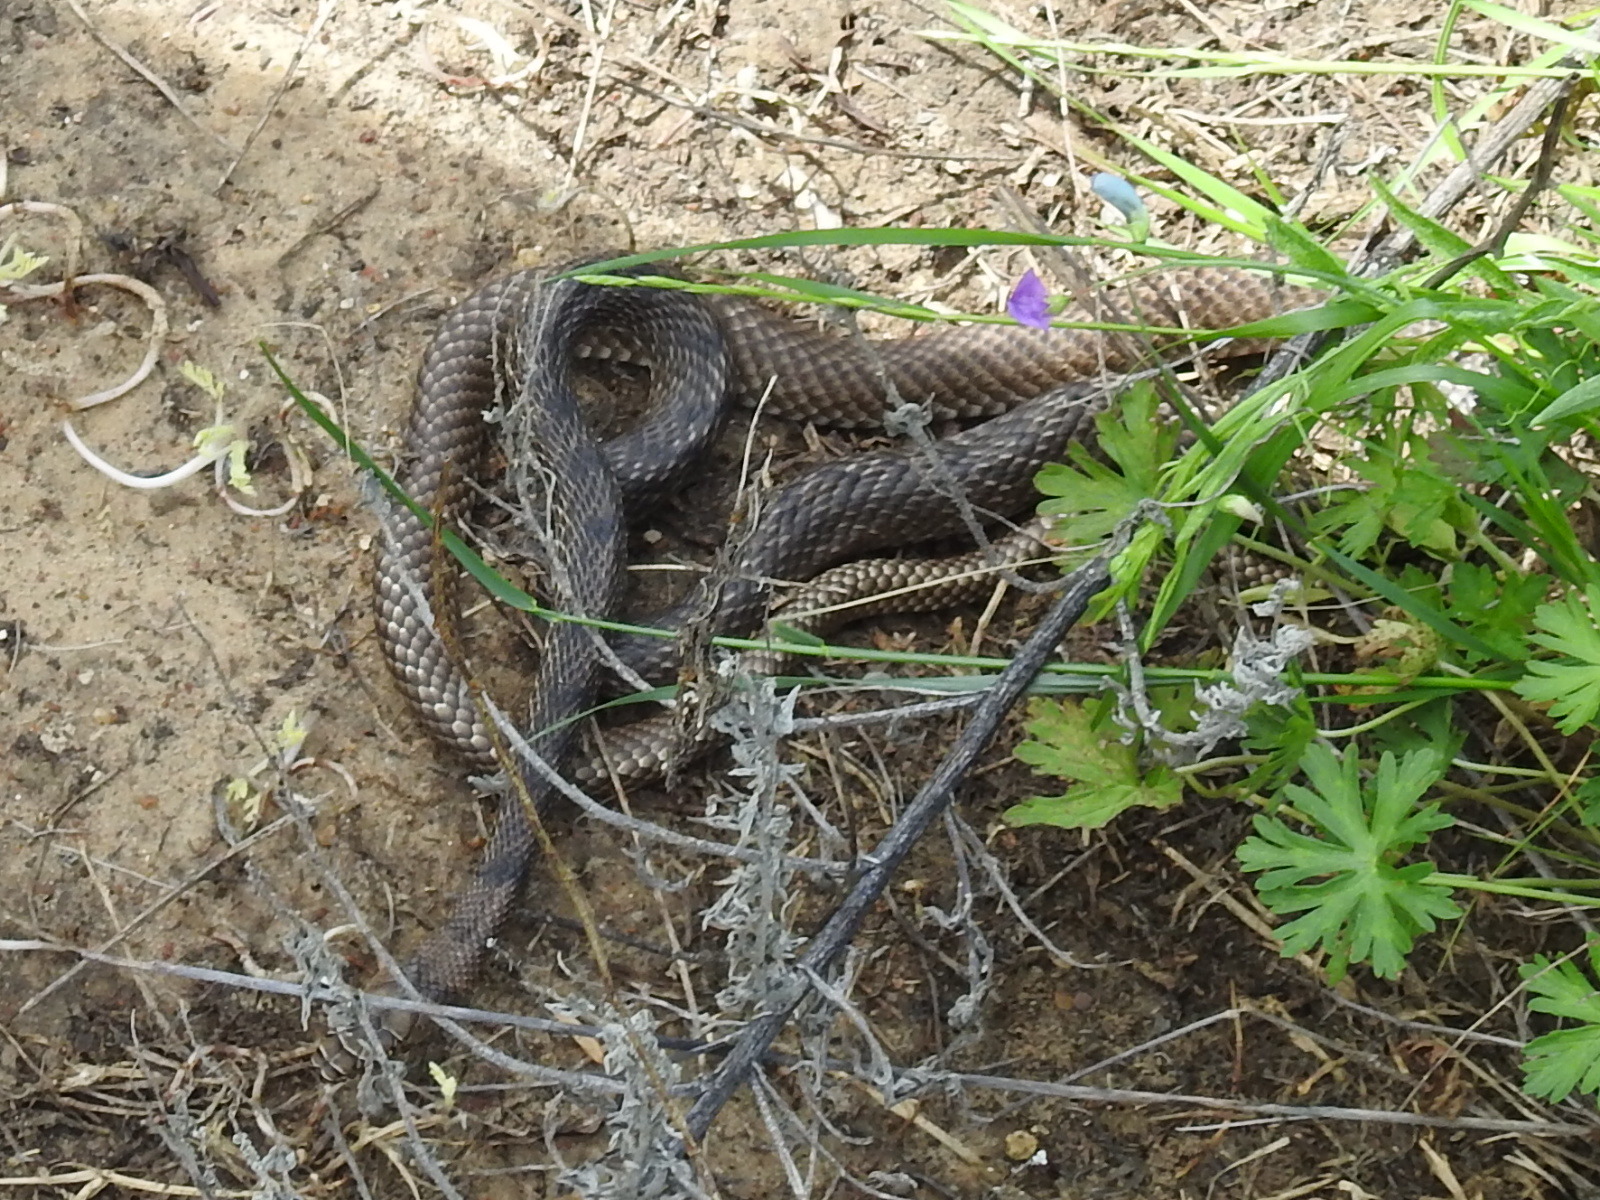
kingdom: Animalia
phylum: Chordata
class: Squamata
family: Colubridae
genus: Masticophis
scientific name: Masticophis flagellum
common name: Coachwhip
